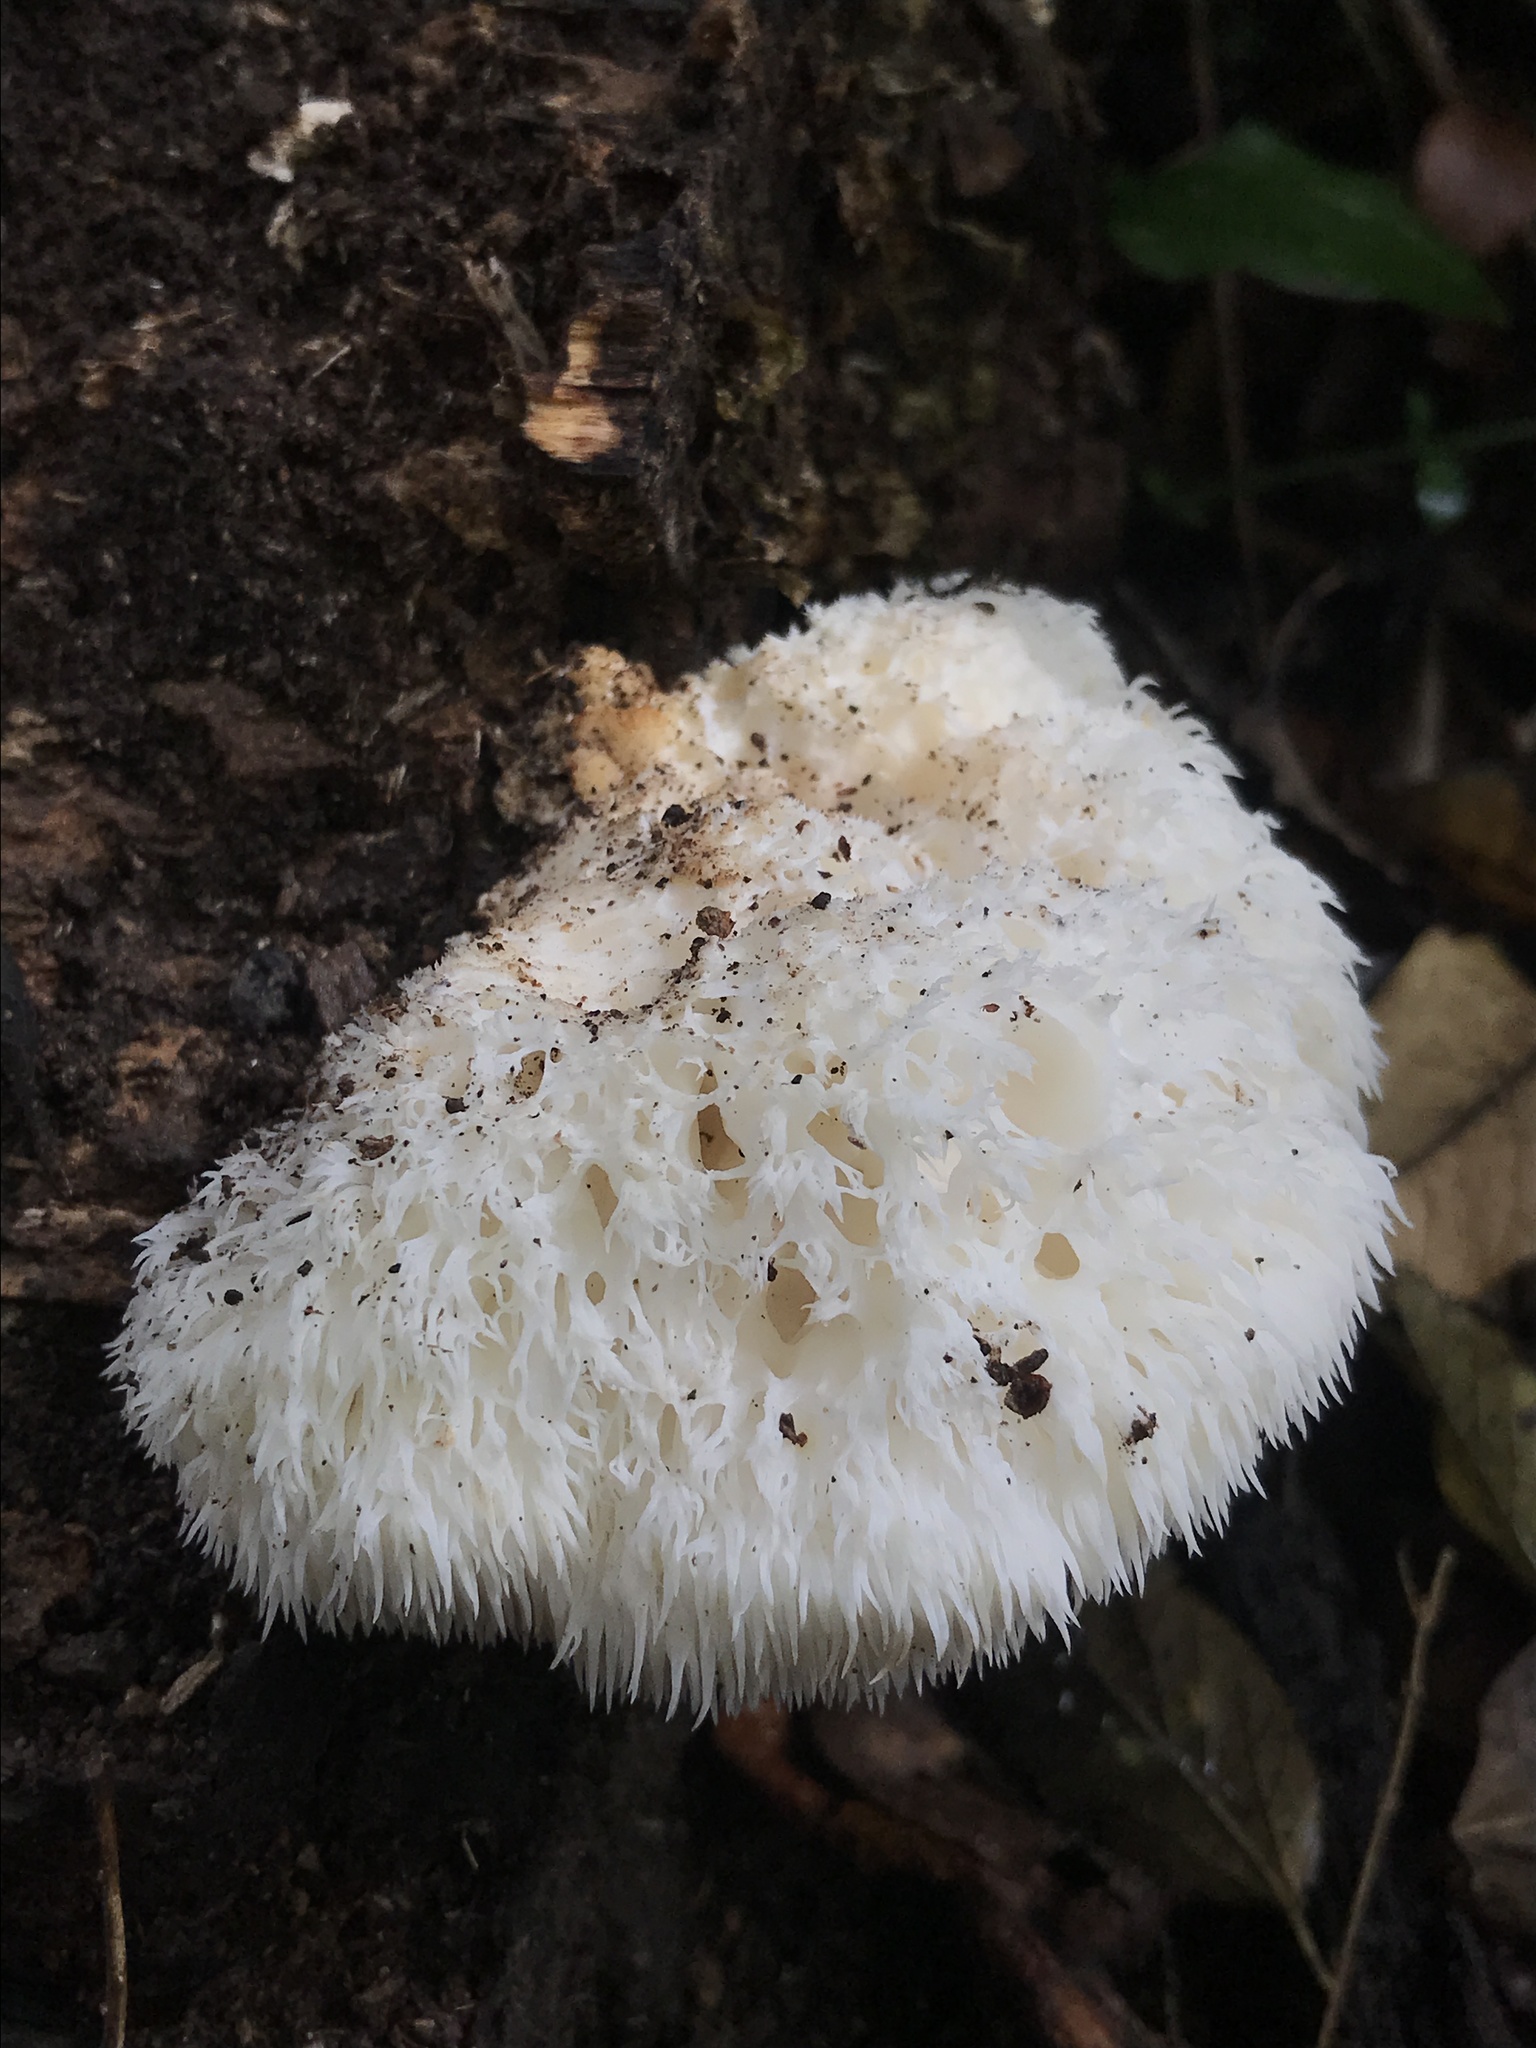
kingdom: Fungi
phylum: Basidiomycota
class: Agaricomycetes
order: Russulales
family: Hericiaceae
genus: Hericium
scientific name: Hericium erinaceus
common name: Bearded tooth
